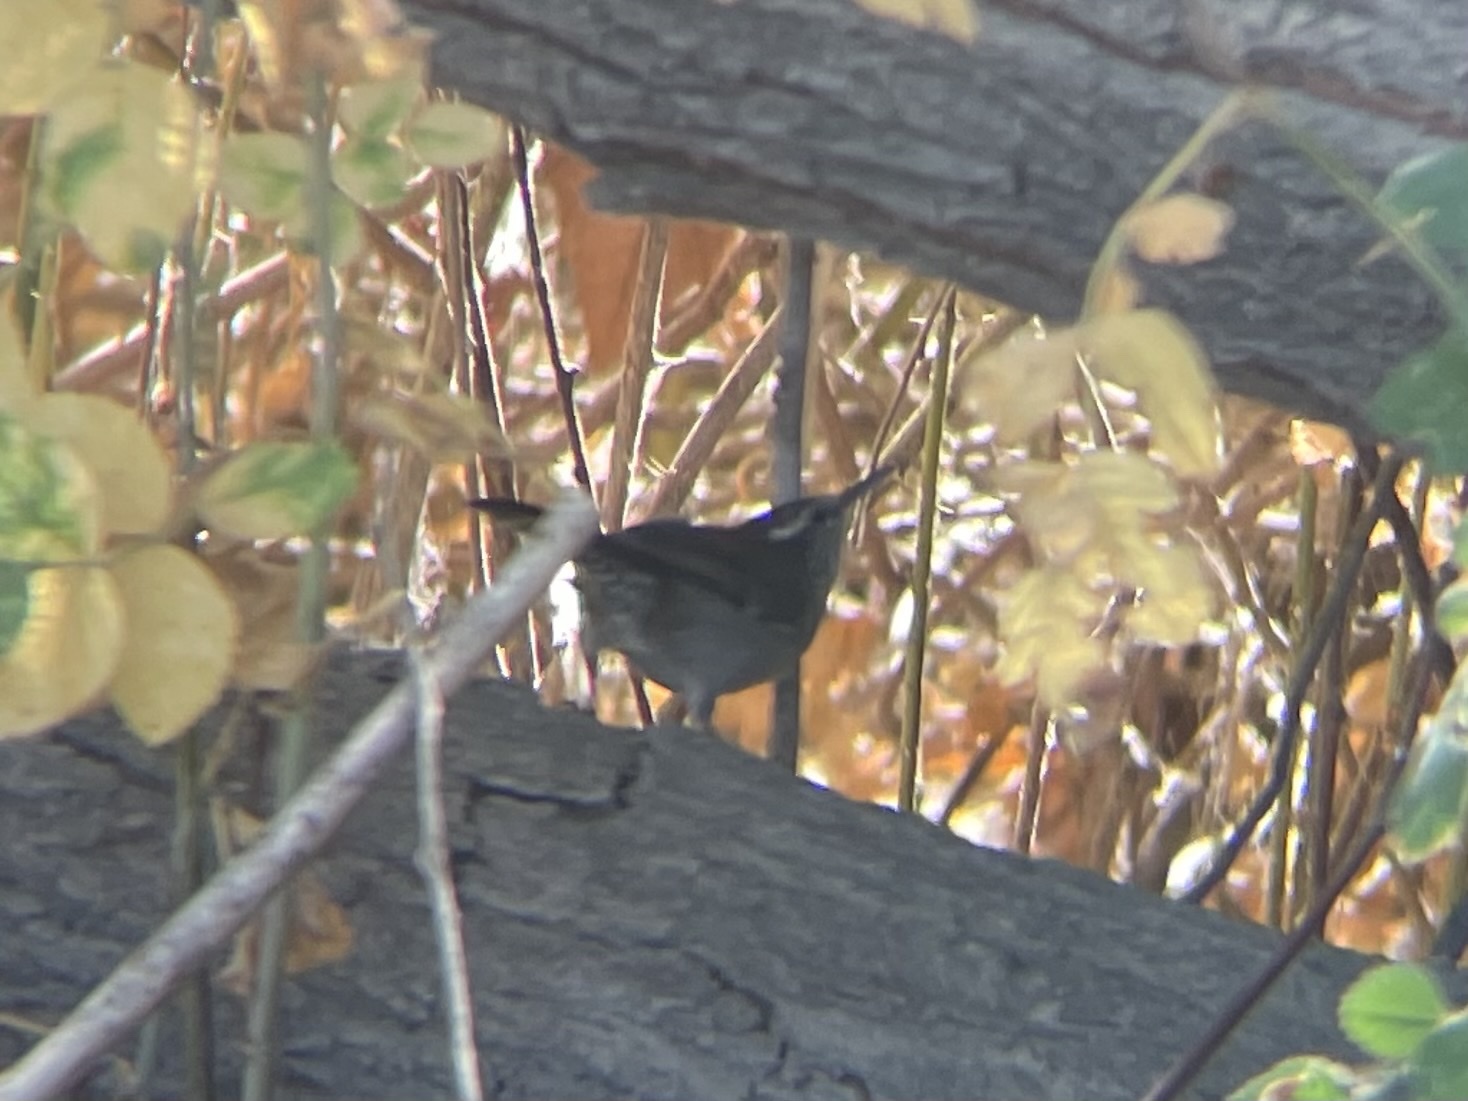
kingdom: Animalia
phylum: Chordata
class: Aves
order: Passeriformes
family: Troglodytidae
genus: Thryomanes
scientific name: Thryomanes bewickii
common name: Bewick's wren
